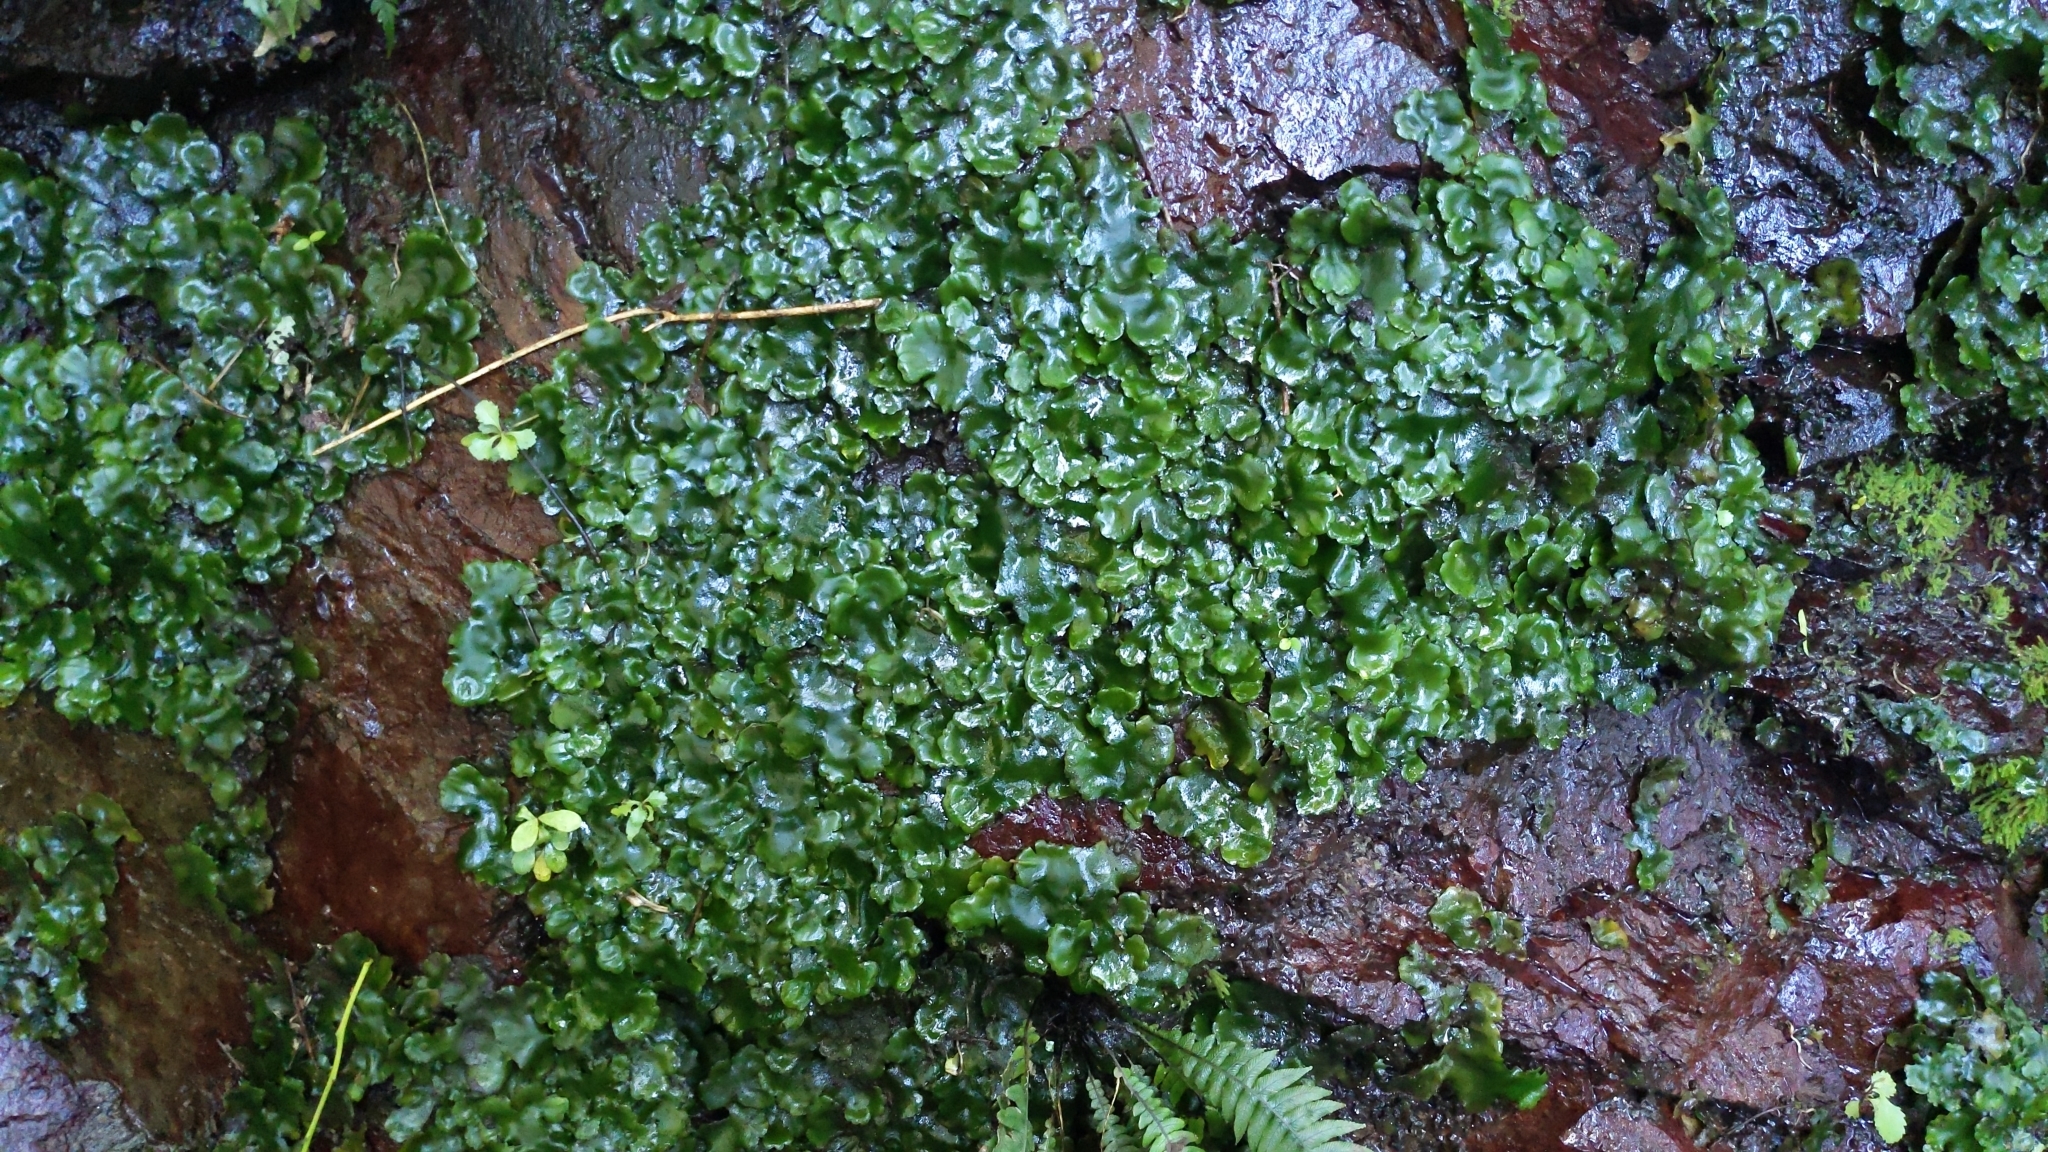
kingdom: Plantae
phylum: Marchantiophyta
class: Marchantiopsida
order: Marchantiales
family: Monocleaceae
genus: Monoclea
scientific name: Monoclea forsteri
